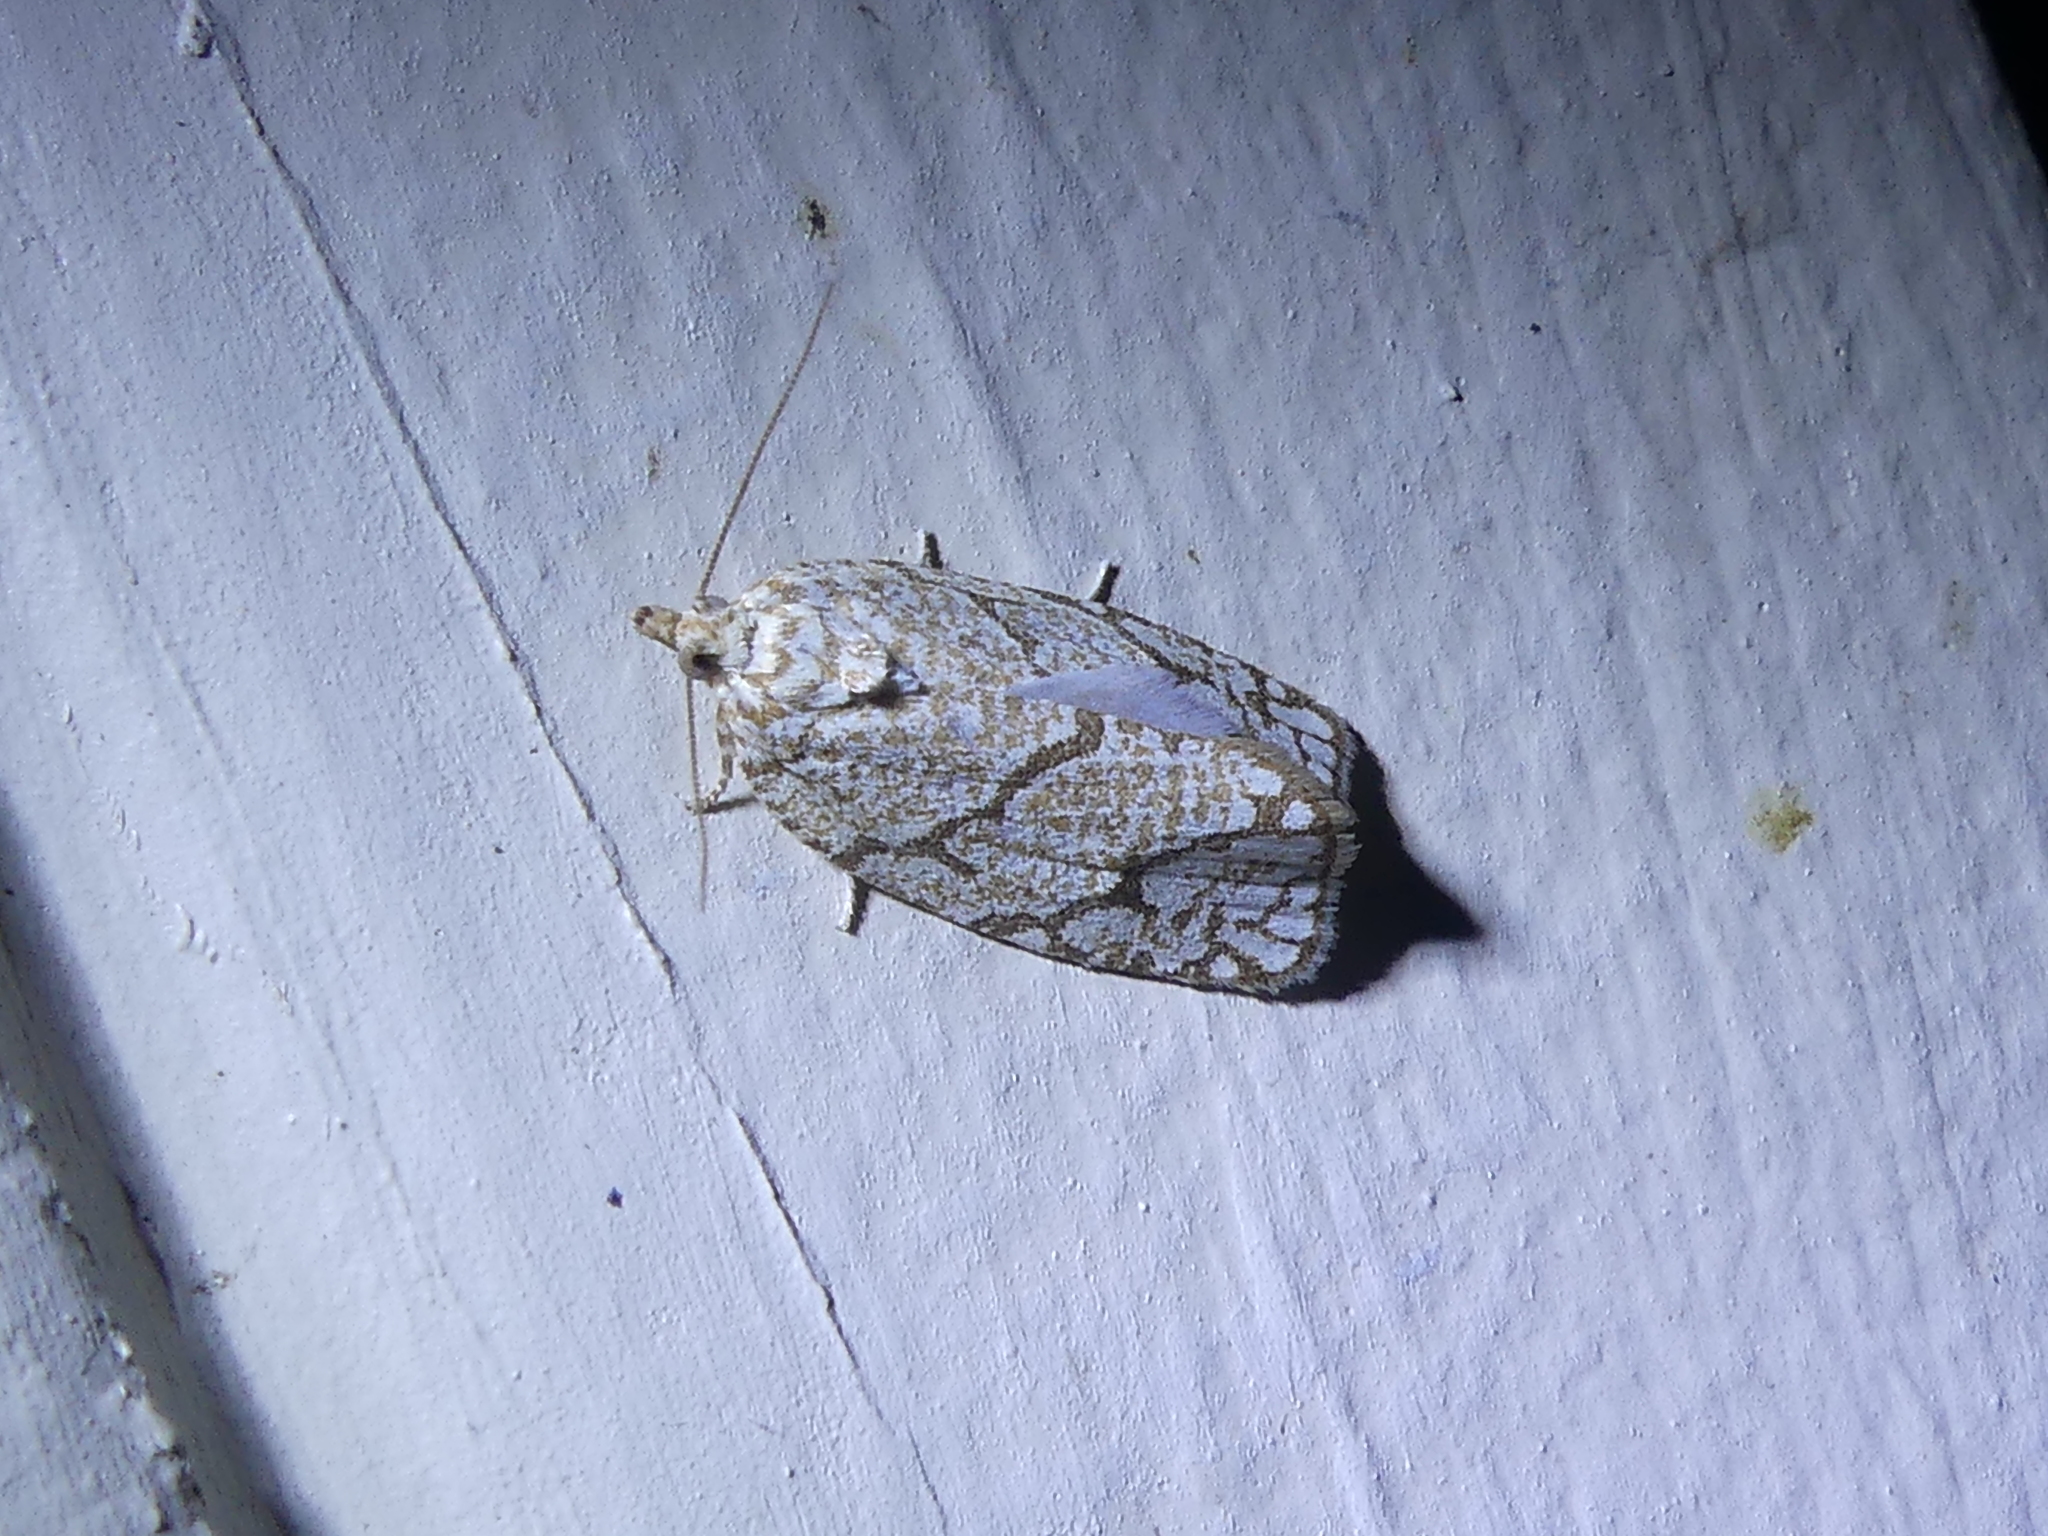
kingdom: Animalia
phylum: Arthropoda
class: Insecta
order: Lepidoptera
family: Tortricidae
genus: Argyrotaenia
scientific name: Argyrotaenia quercifoliana
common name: Yellow-winged oak leafroller moth
